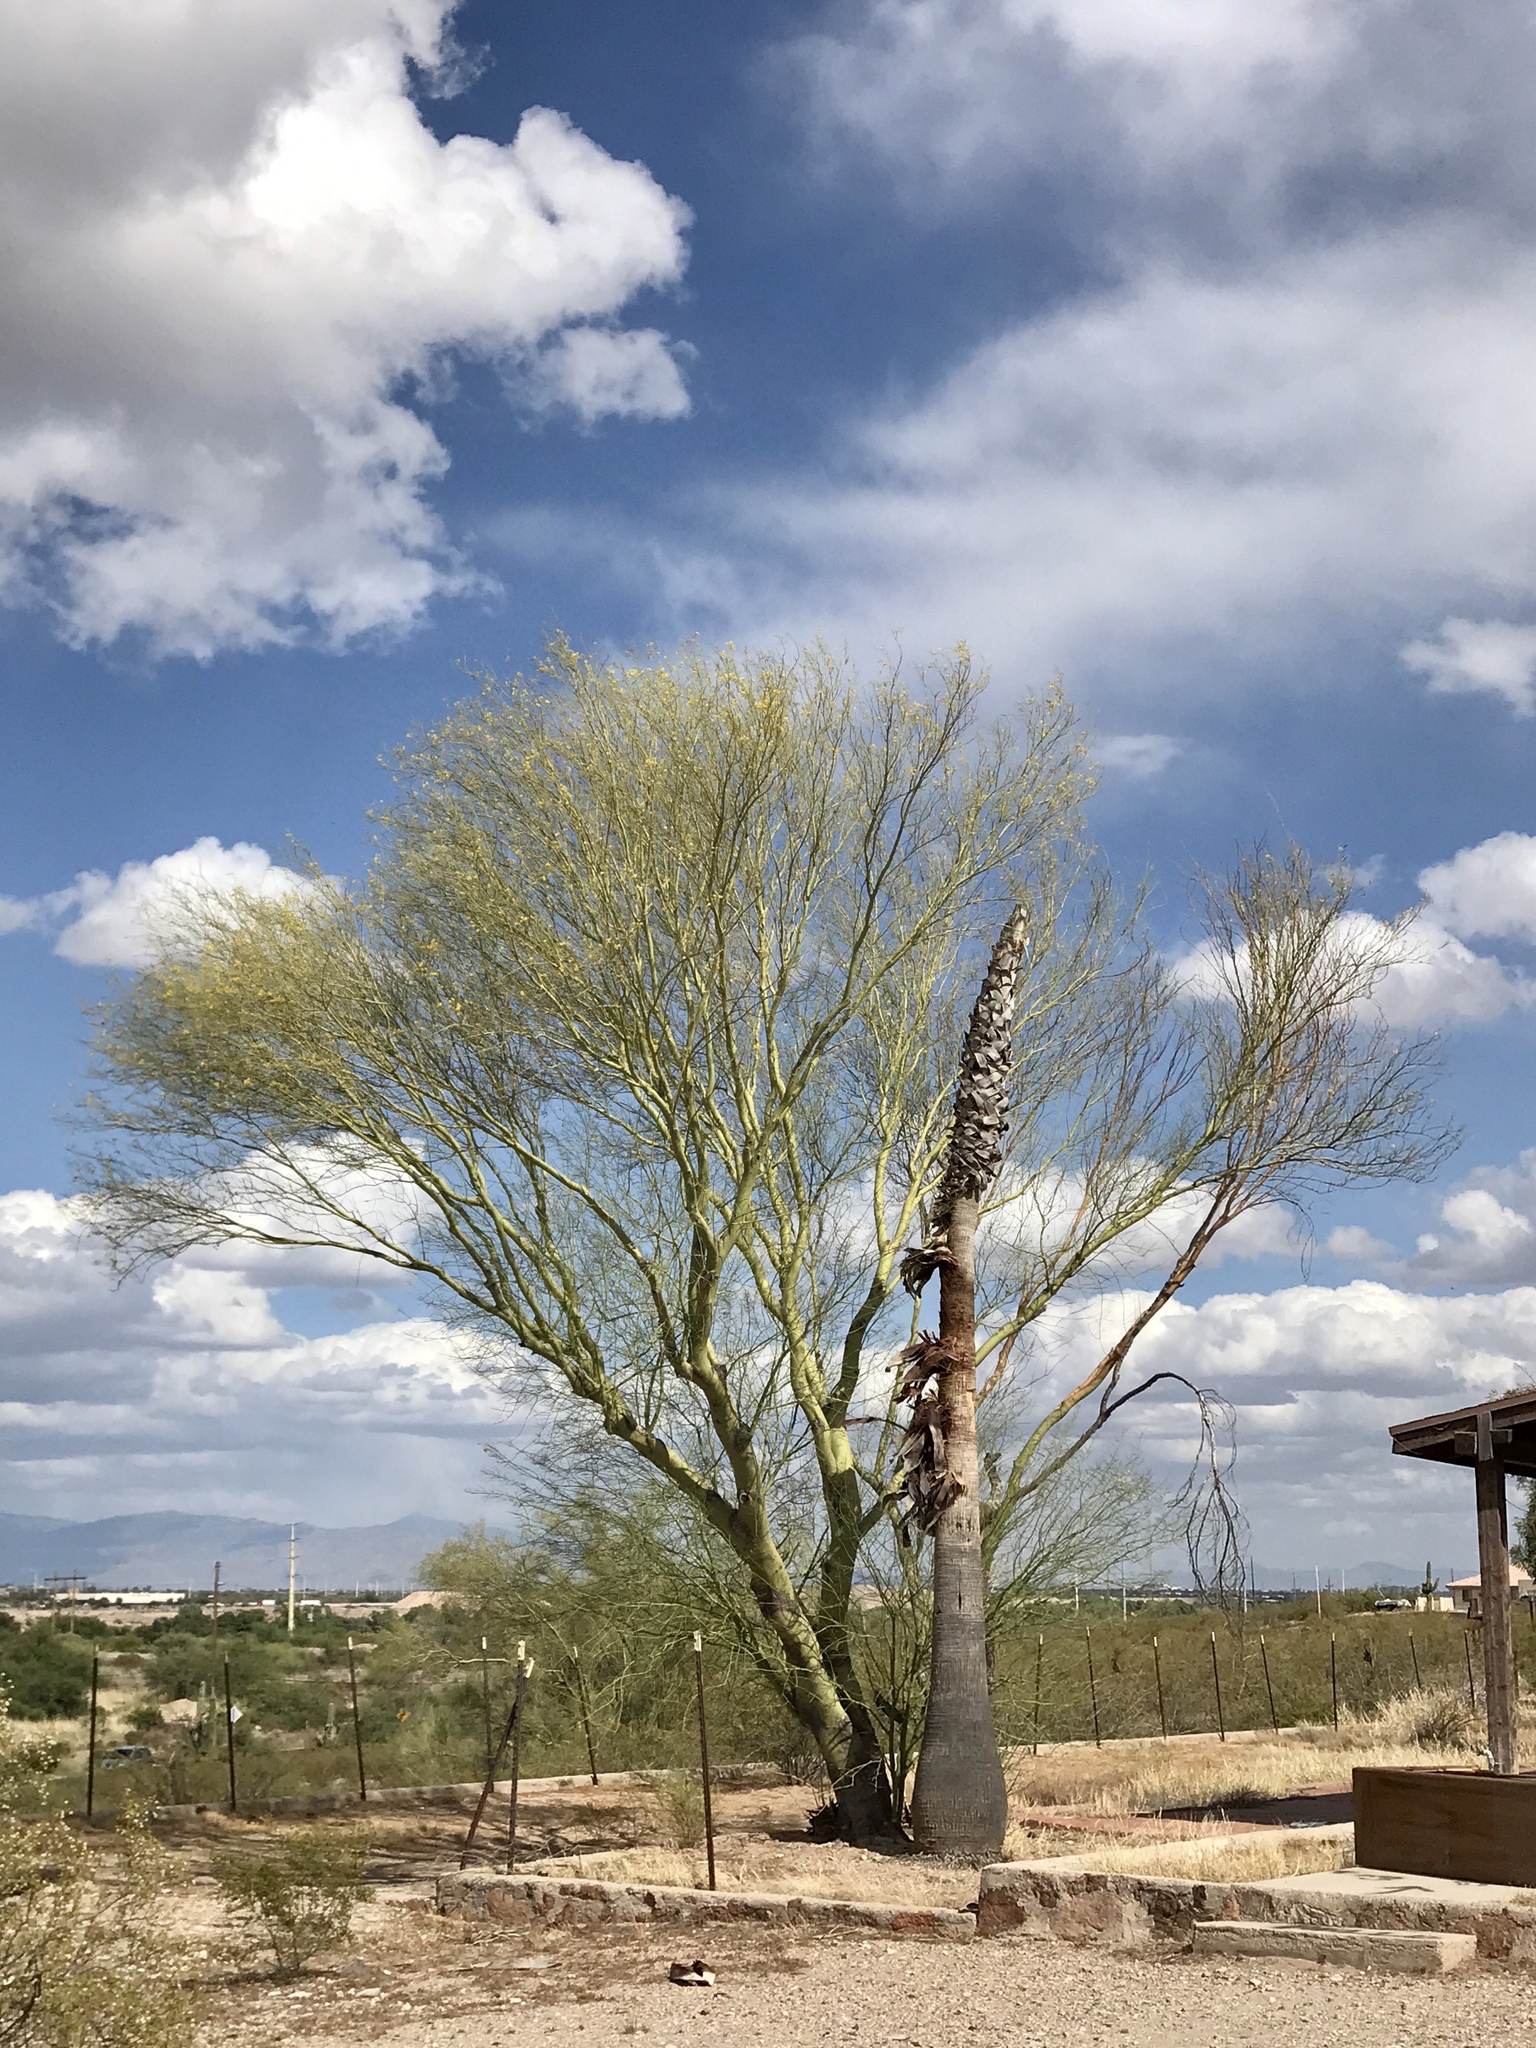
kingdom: Plantae
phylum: Tracheophyta
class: Magnoliopsida
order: Fabales
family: Fabaceae
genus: Parkinsonia
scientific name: Parkinsonia microphylla
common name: Yellow paloverde
